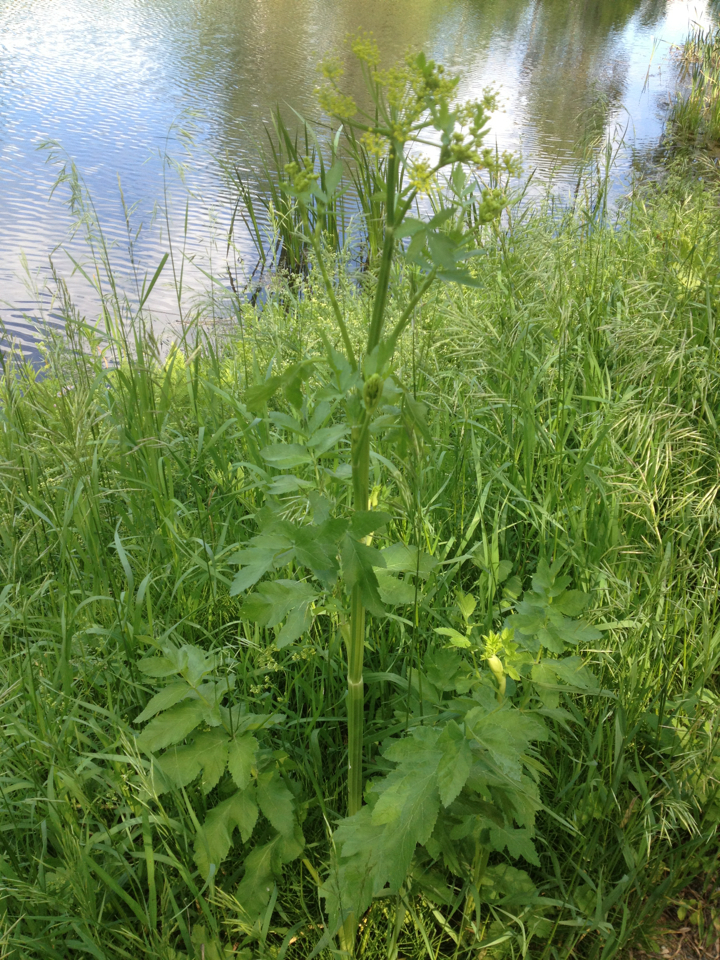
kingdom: Plantae
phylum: Tracheophyta
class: Magnoliopsida
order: Apiales
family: Apiaceae
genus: Pastinaca
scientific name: Pastinaca sativa
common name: Wild parsnip
